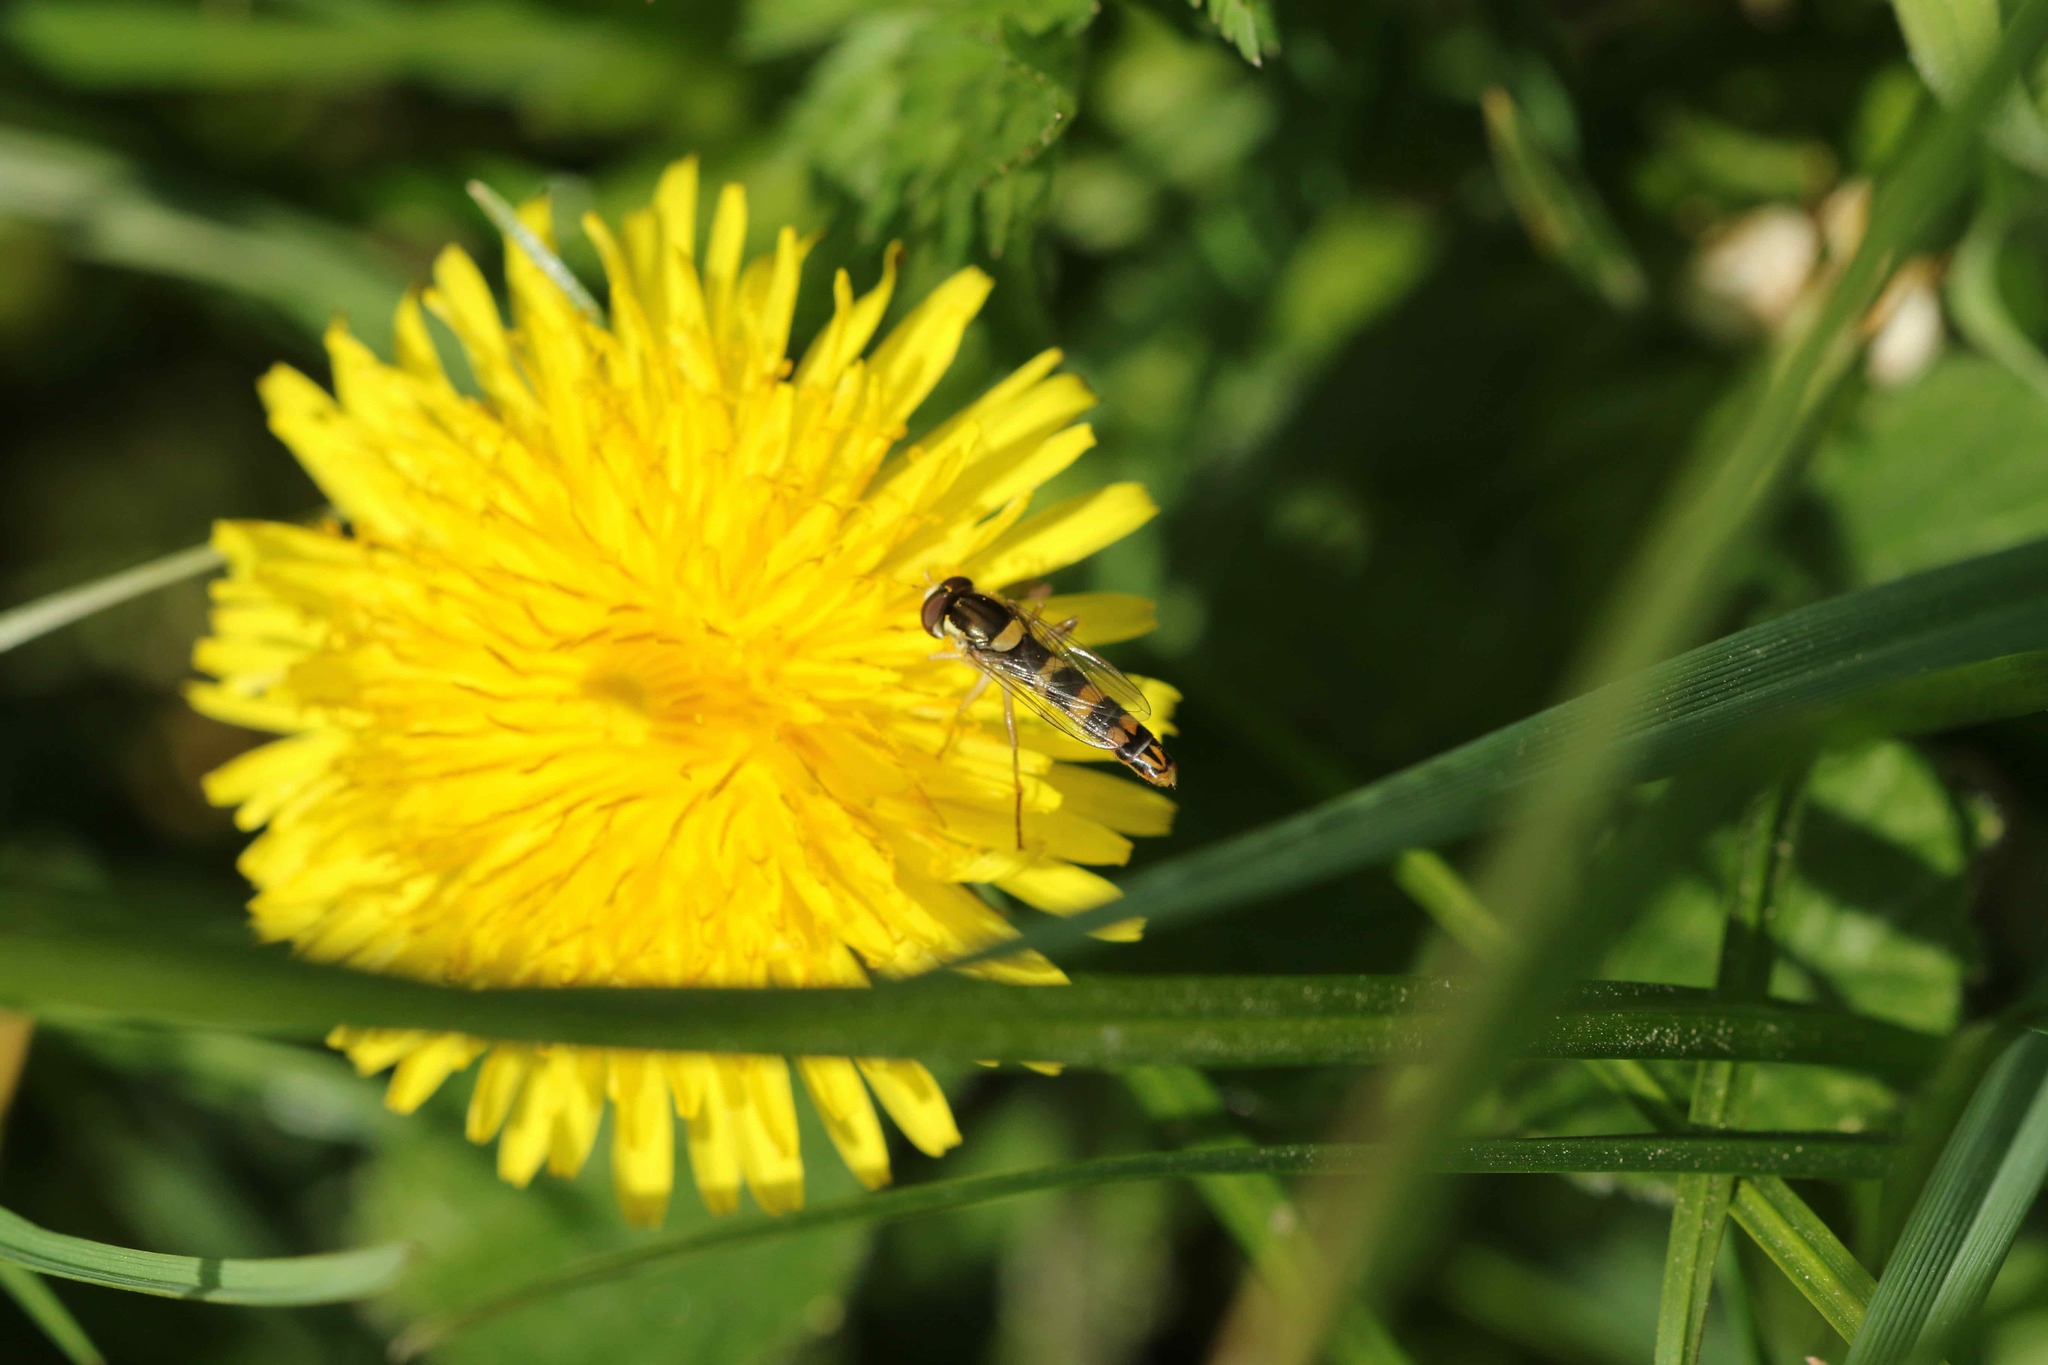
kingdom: Animalia
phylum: Arthropoda
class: Insecta
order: Diptera
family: Syrphidae
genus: Sphaerophoria
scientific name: Sphaerophoria scripta
